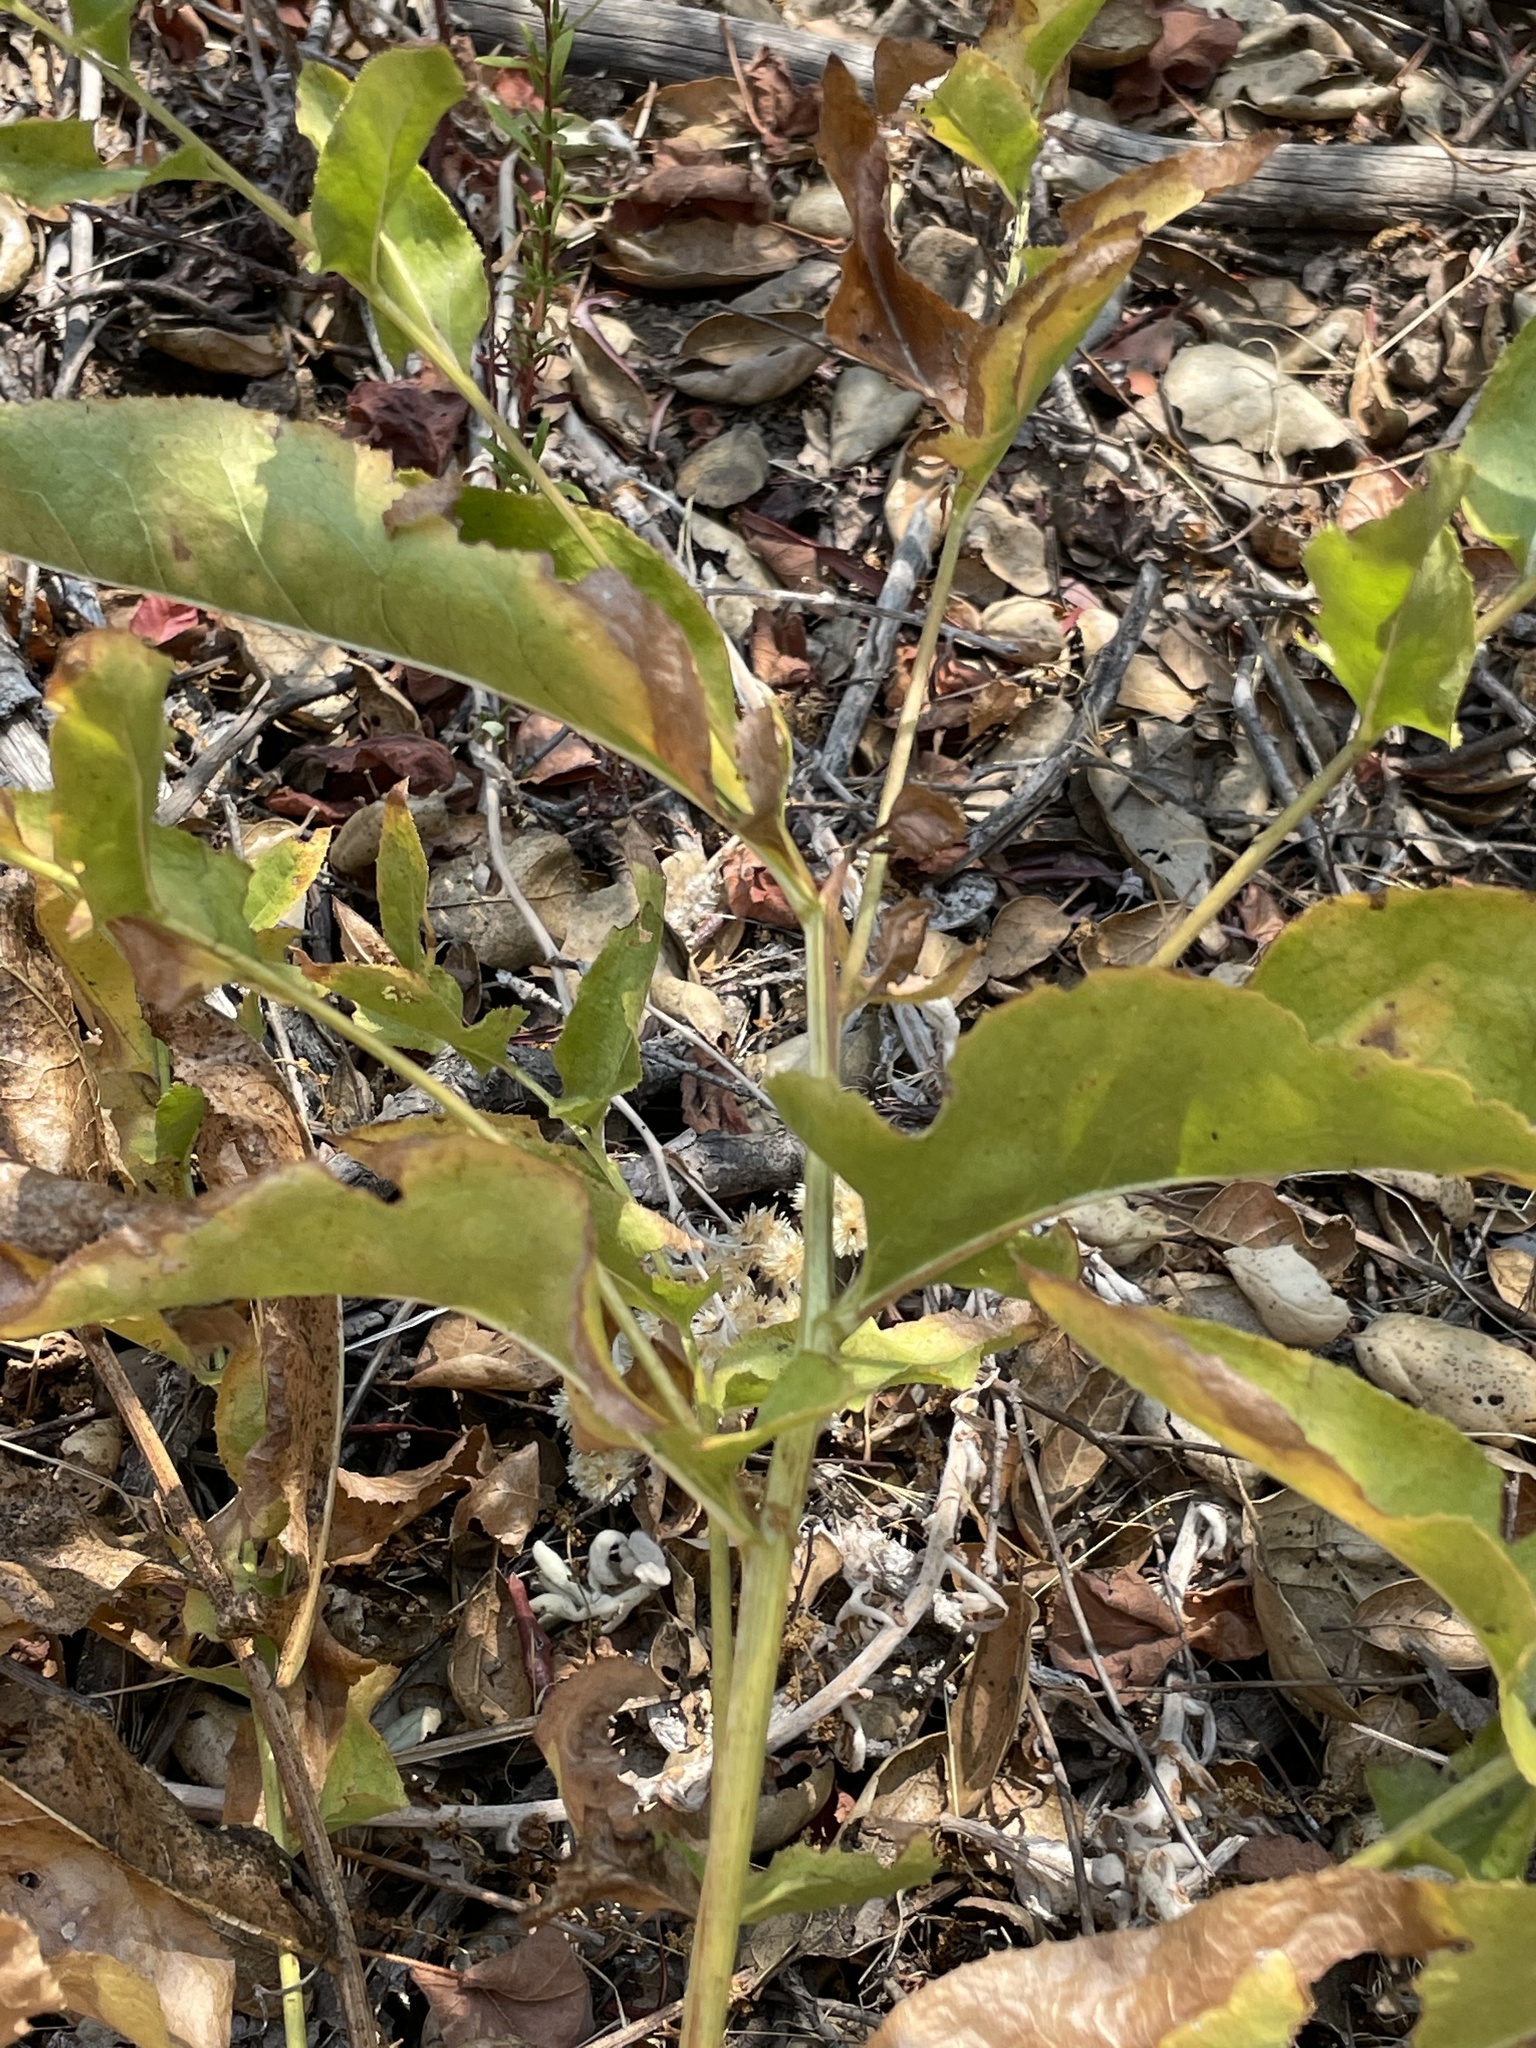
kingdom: Plantae
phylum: Tracheophyta
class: Magnoliopsida
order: Asterales
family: Asteraceae
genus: Acourtia
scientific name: Acourtia microcephala
